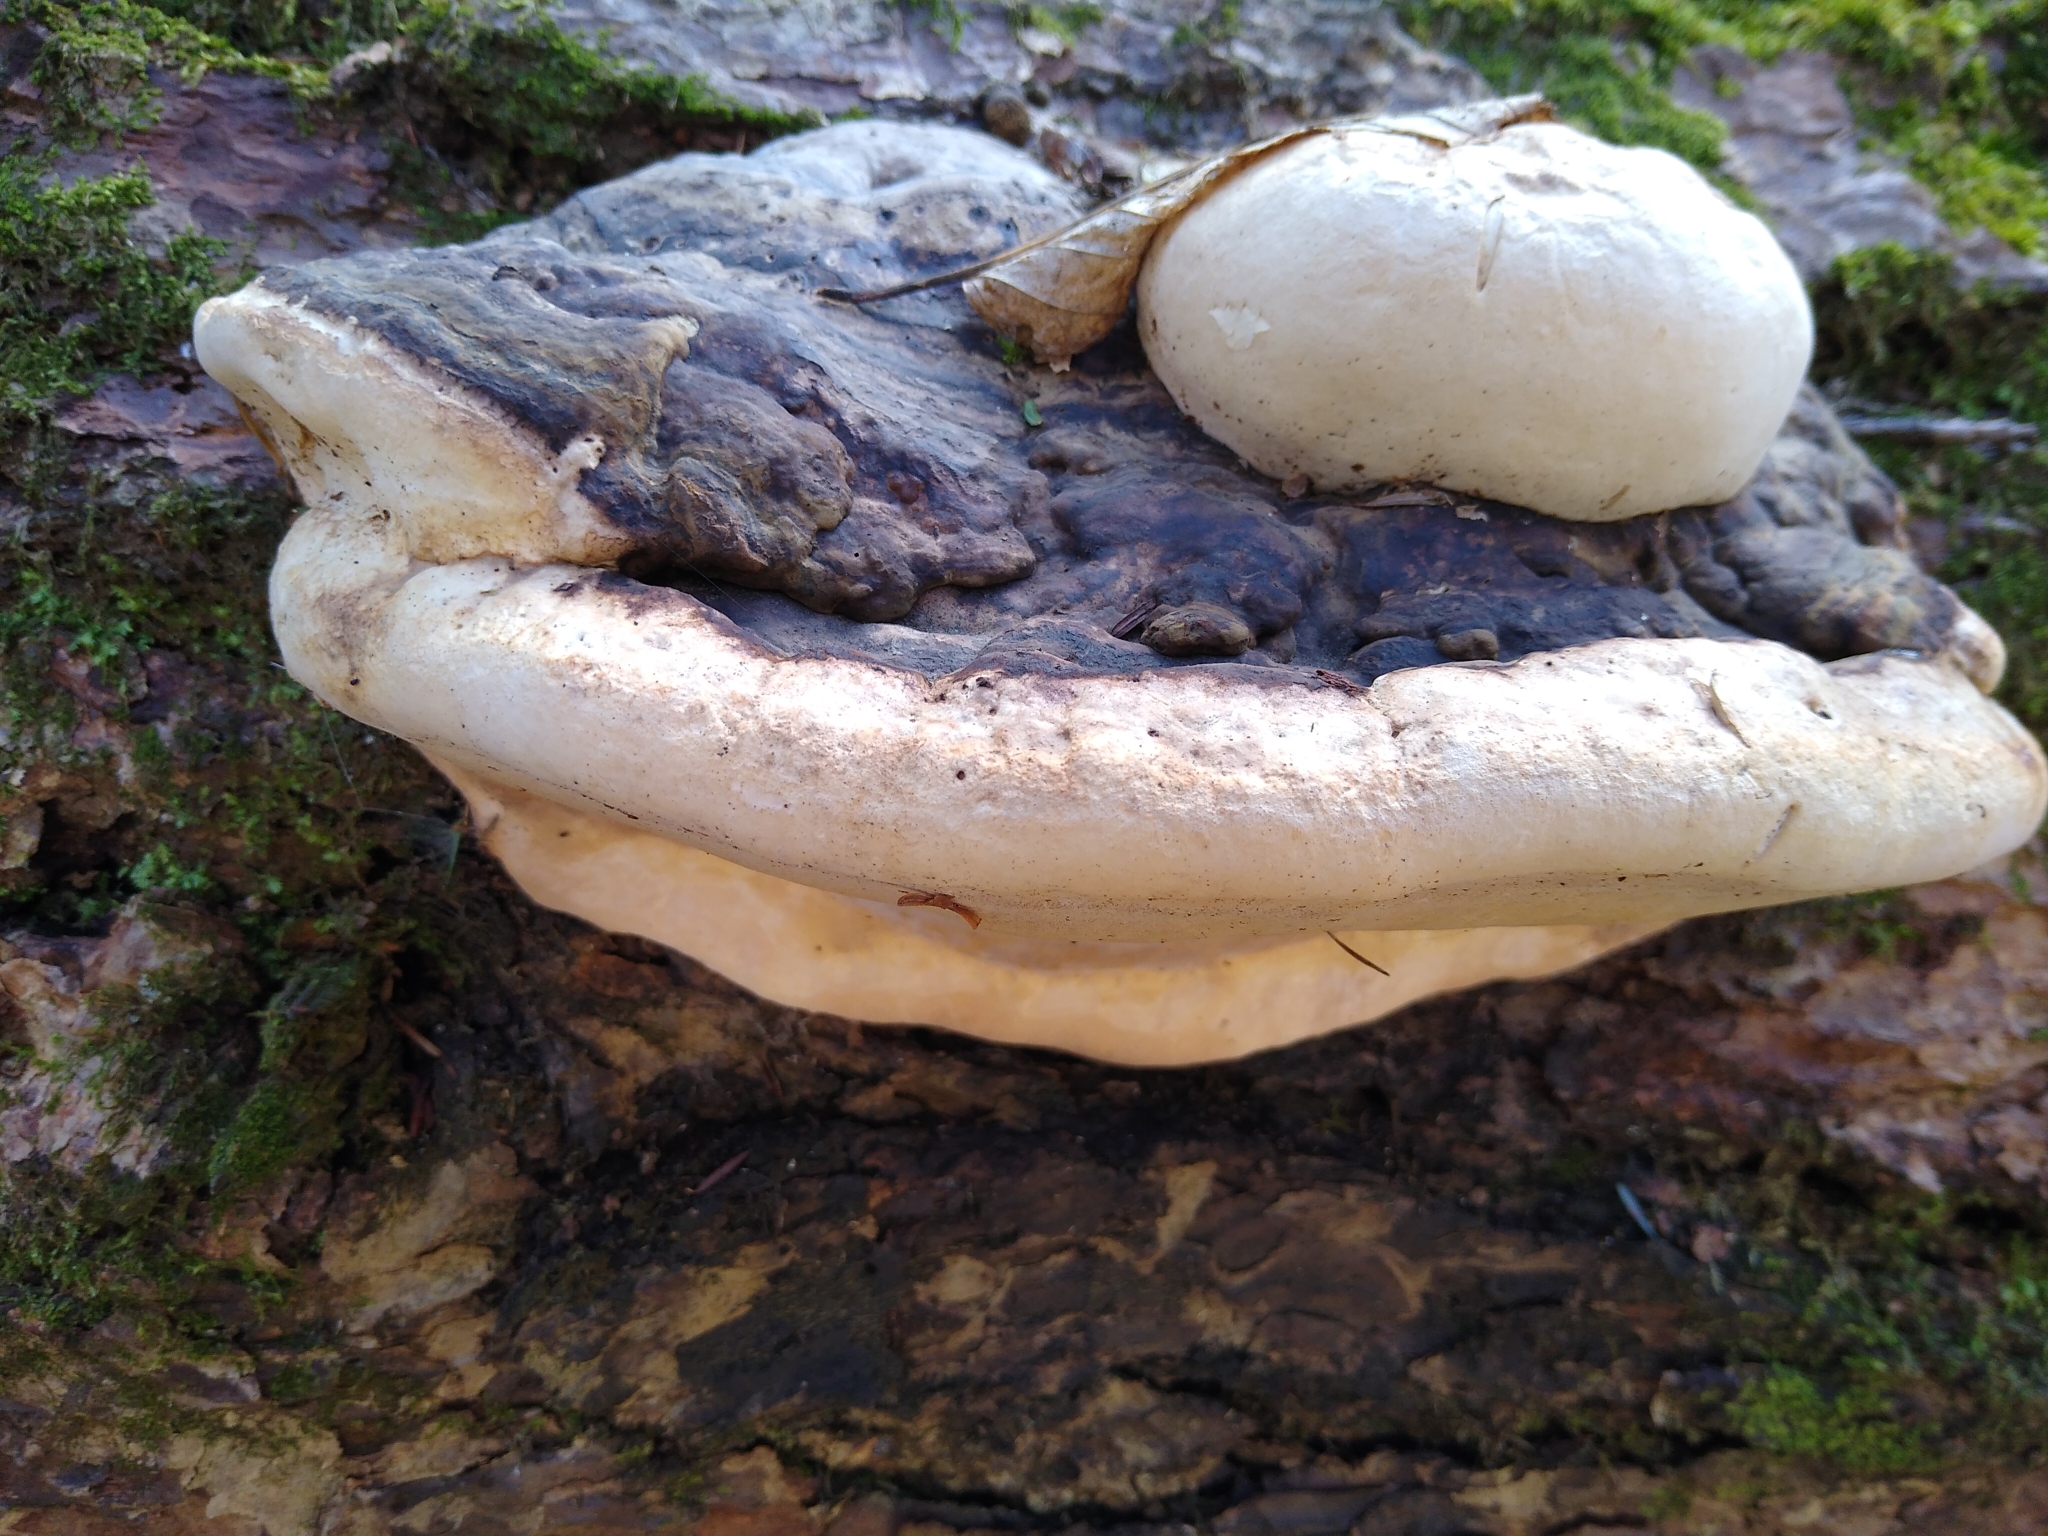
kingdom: Fungi
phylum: Basidiomycota
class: Agaricomycetes
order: Polyporales
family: Fomitopsidaceae
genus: Fomitopsis
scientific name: Fomitopsis ochracea
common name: American brown fomitopsis
